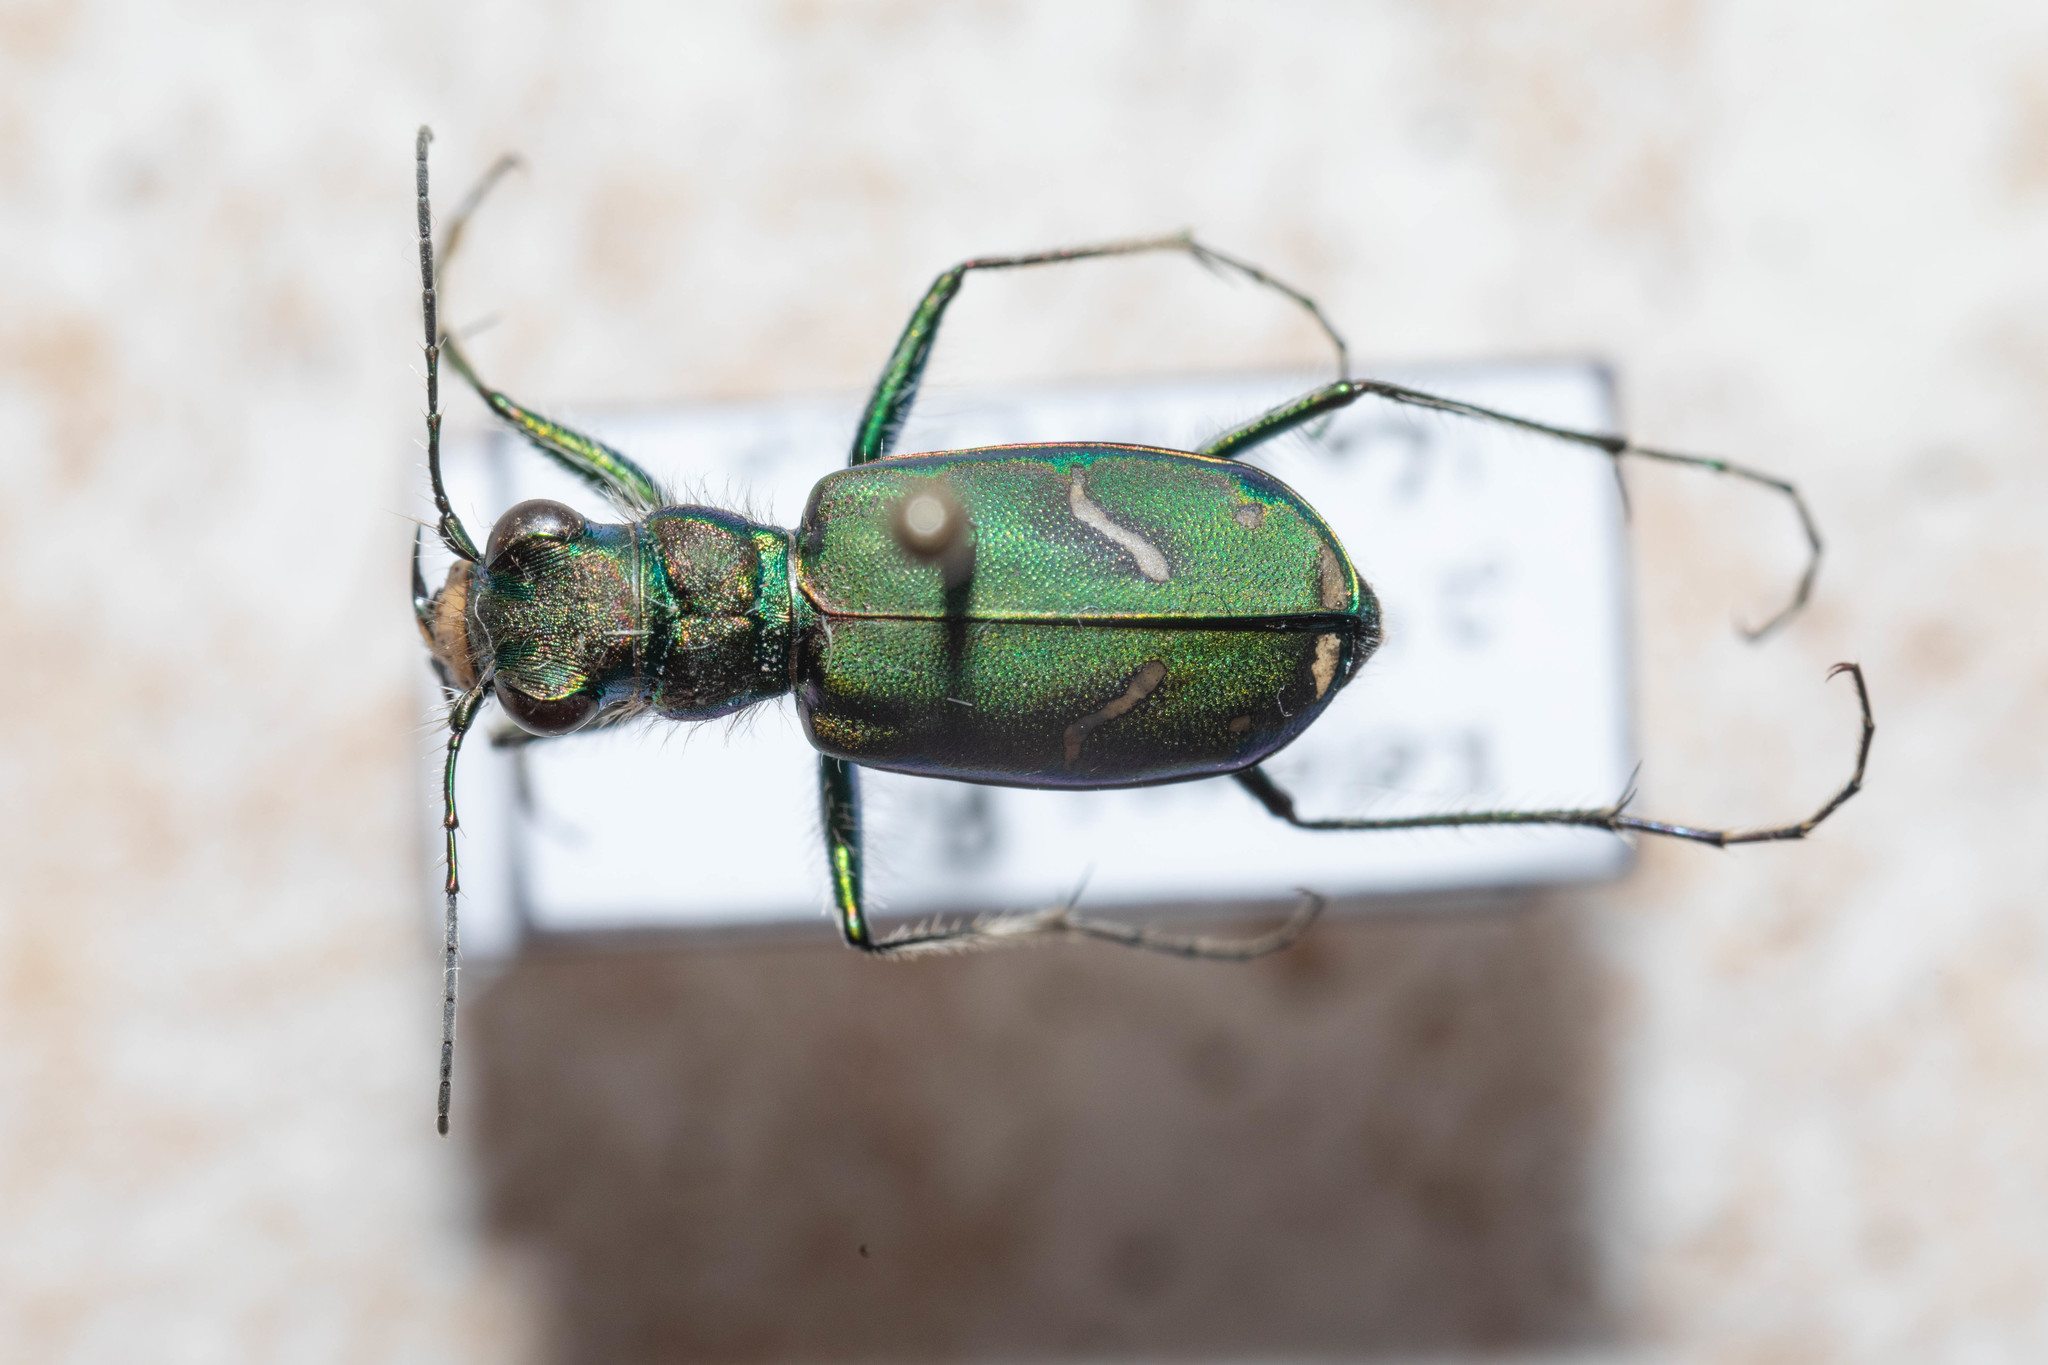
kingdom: Animalia
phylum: Arthropoda
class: Insecta
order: Coleoptera
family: Carabidae
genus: Cicindela
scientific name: Cicindela purpurea
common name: Cow path tiger beetle
